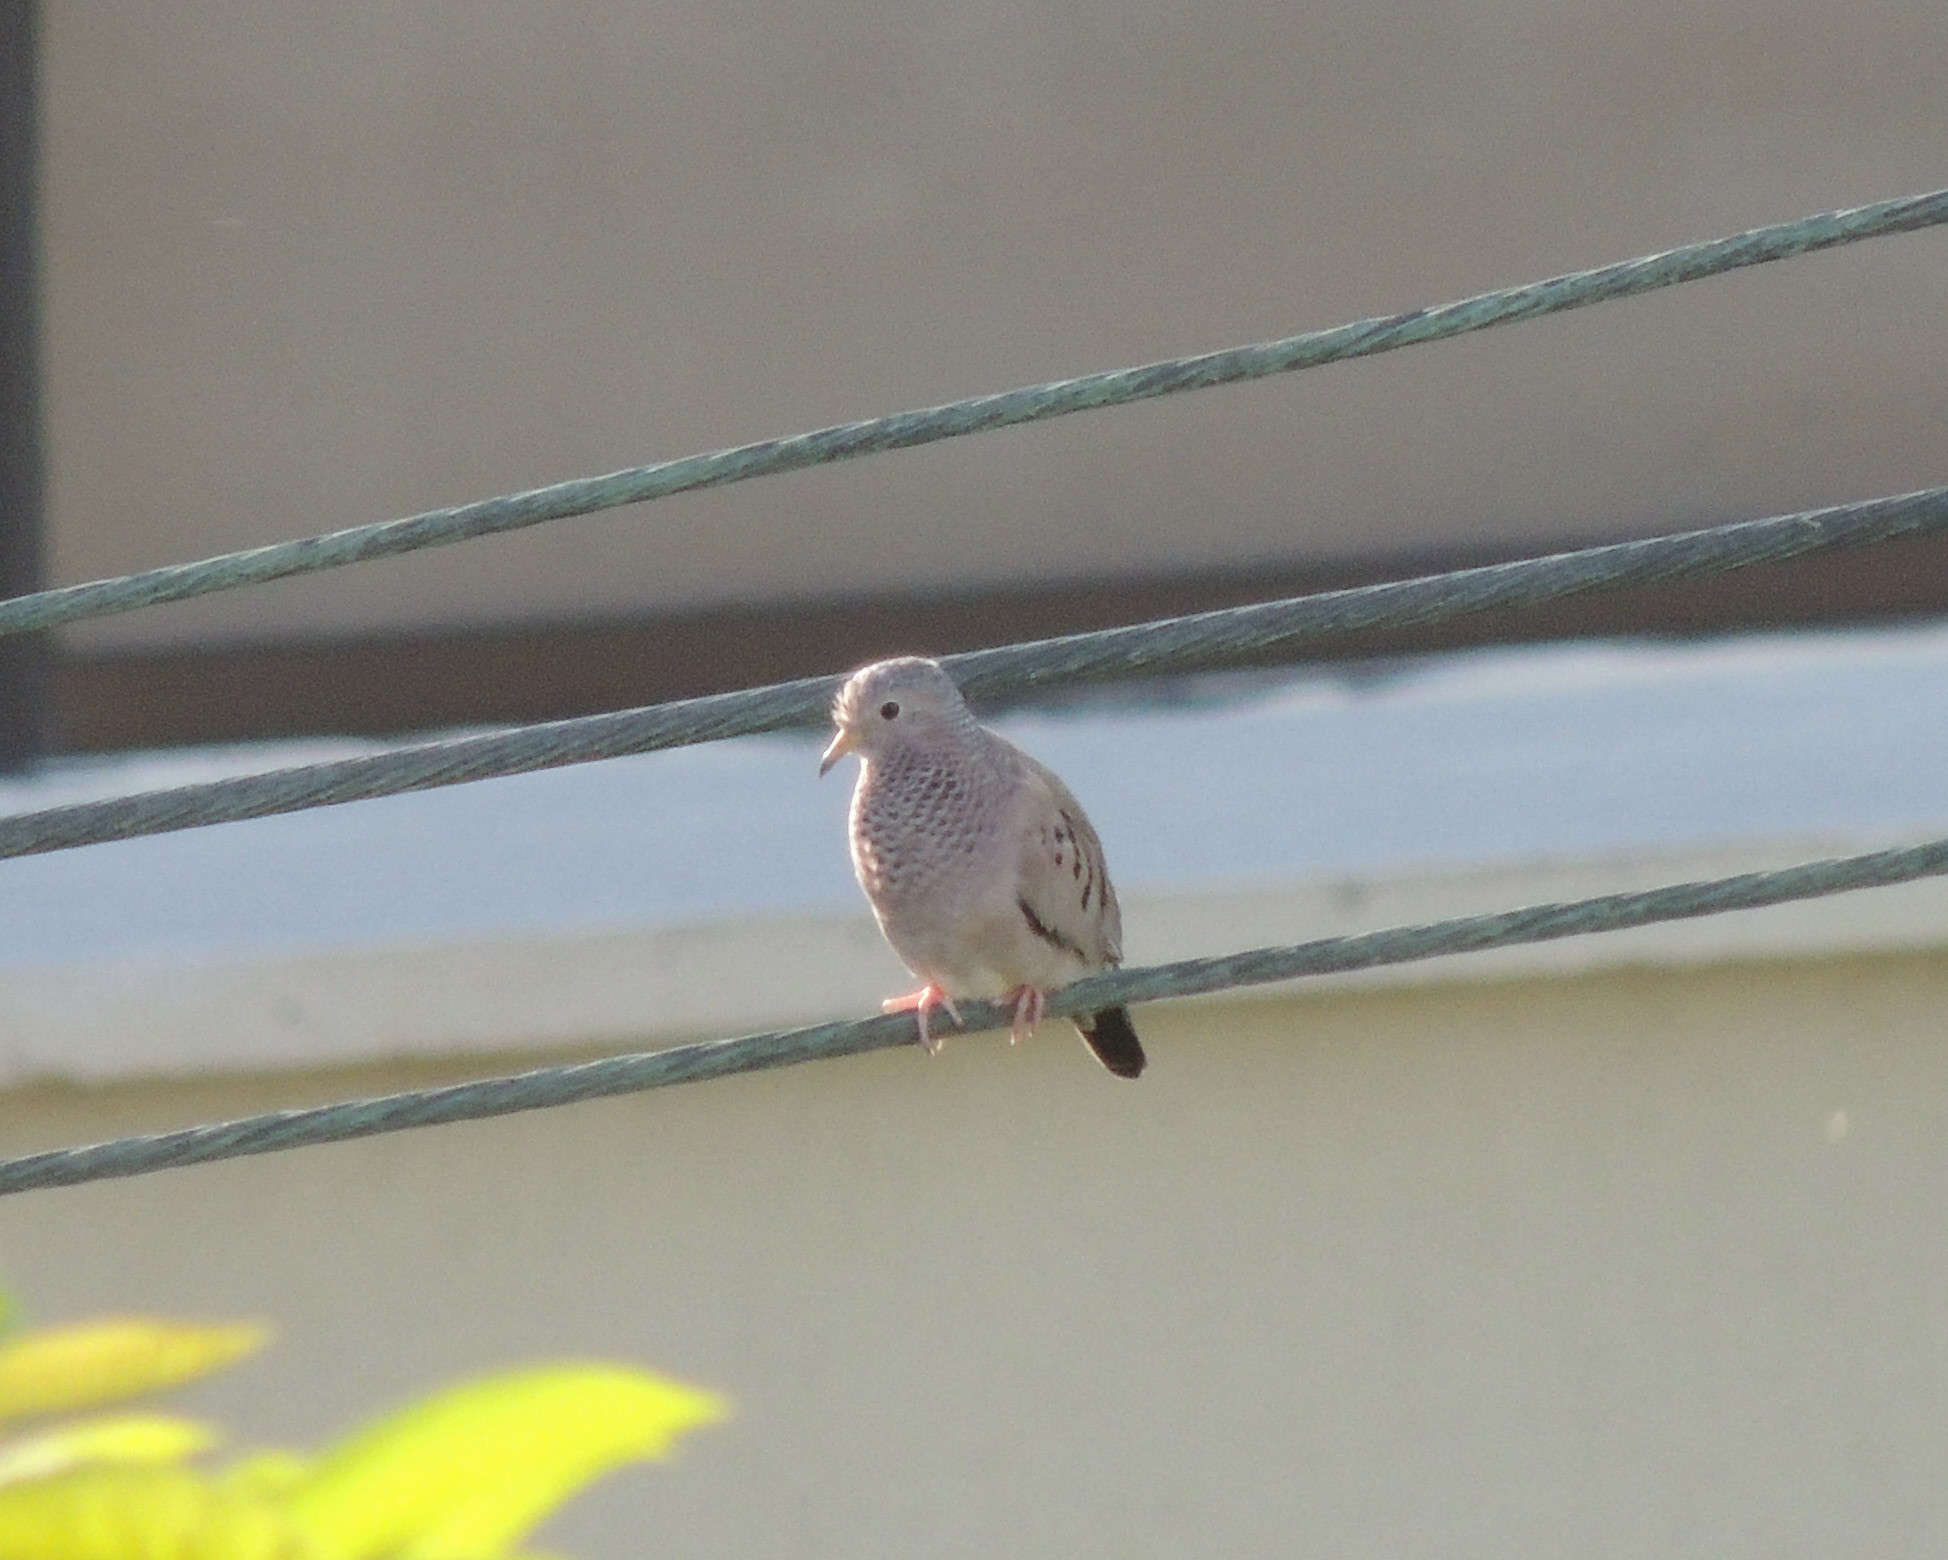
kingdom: Animalia
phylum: Chordata
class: Aves
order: Columbiformes
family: Columbidae
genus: Columbina
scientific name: Columbina passerina
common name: Common ground-dove
